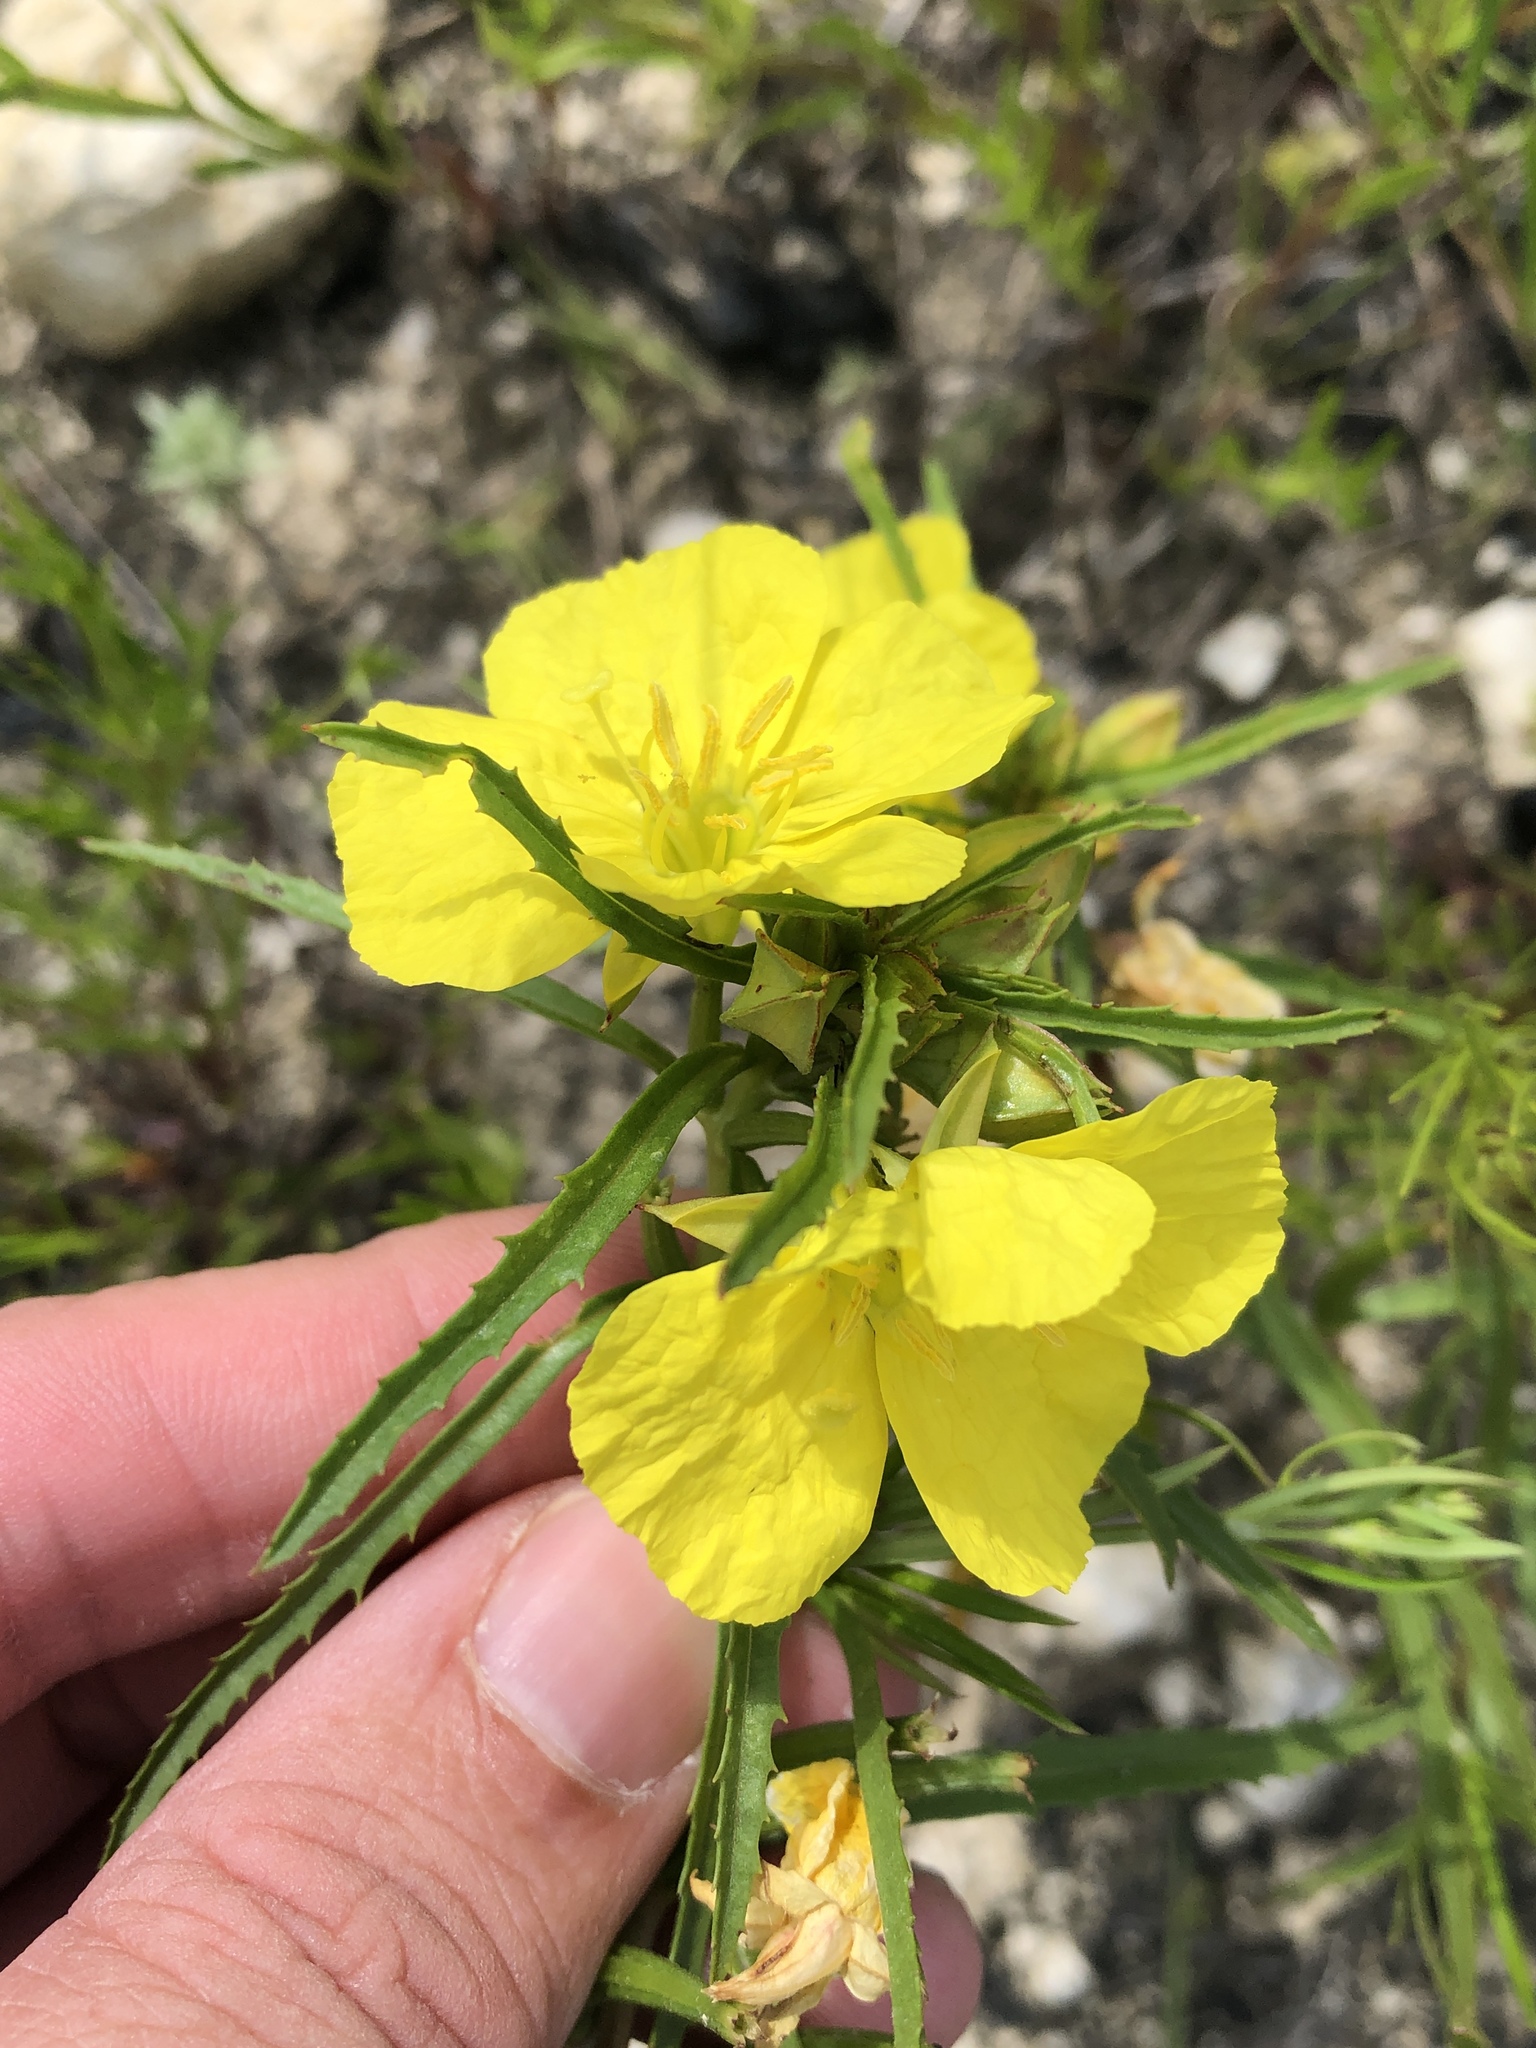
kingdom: Plantae
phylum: Tracheophyta
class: Magnoliopsida
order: Myrtales
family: Onagraceae
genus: Oenothera
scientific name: Oenothera
